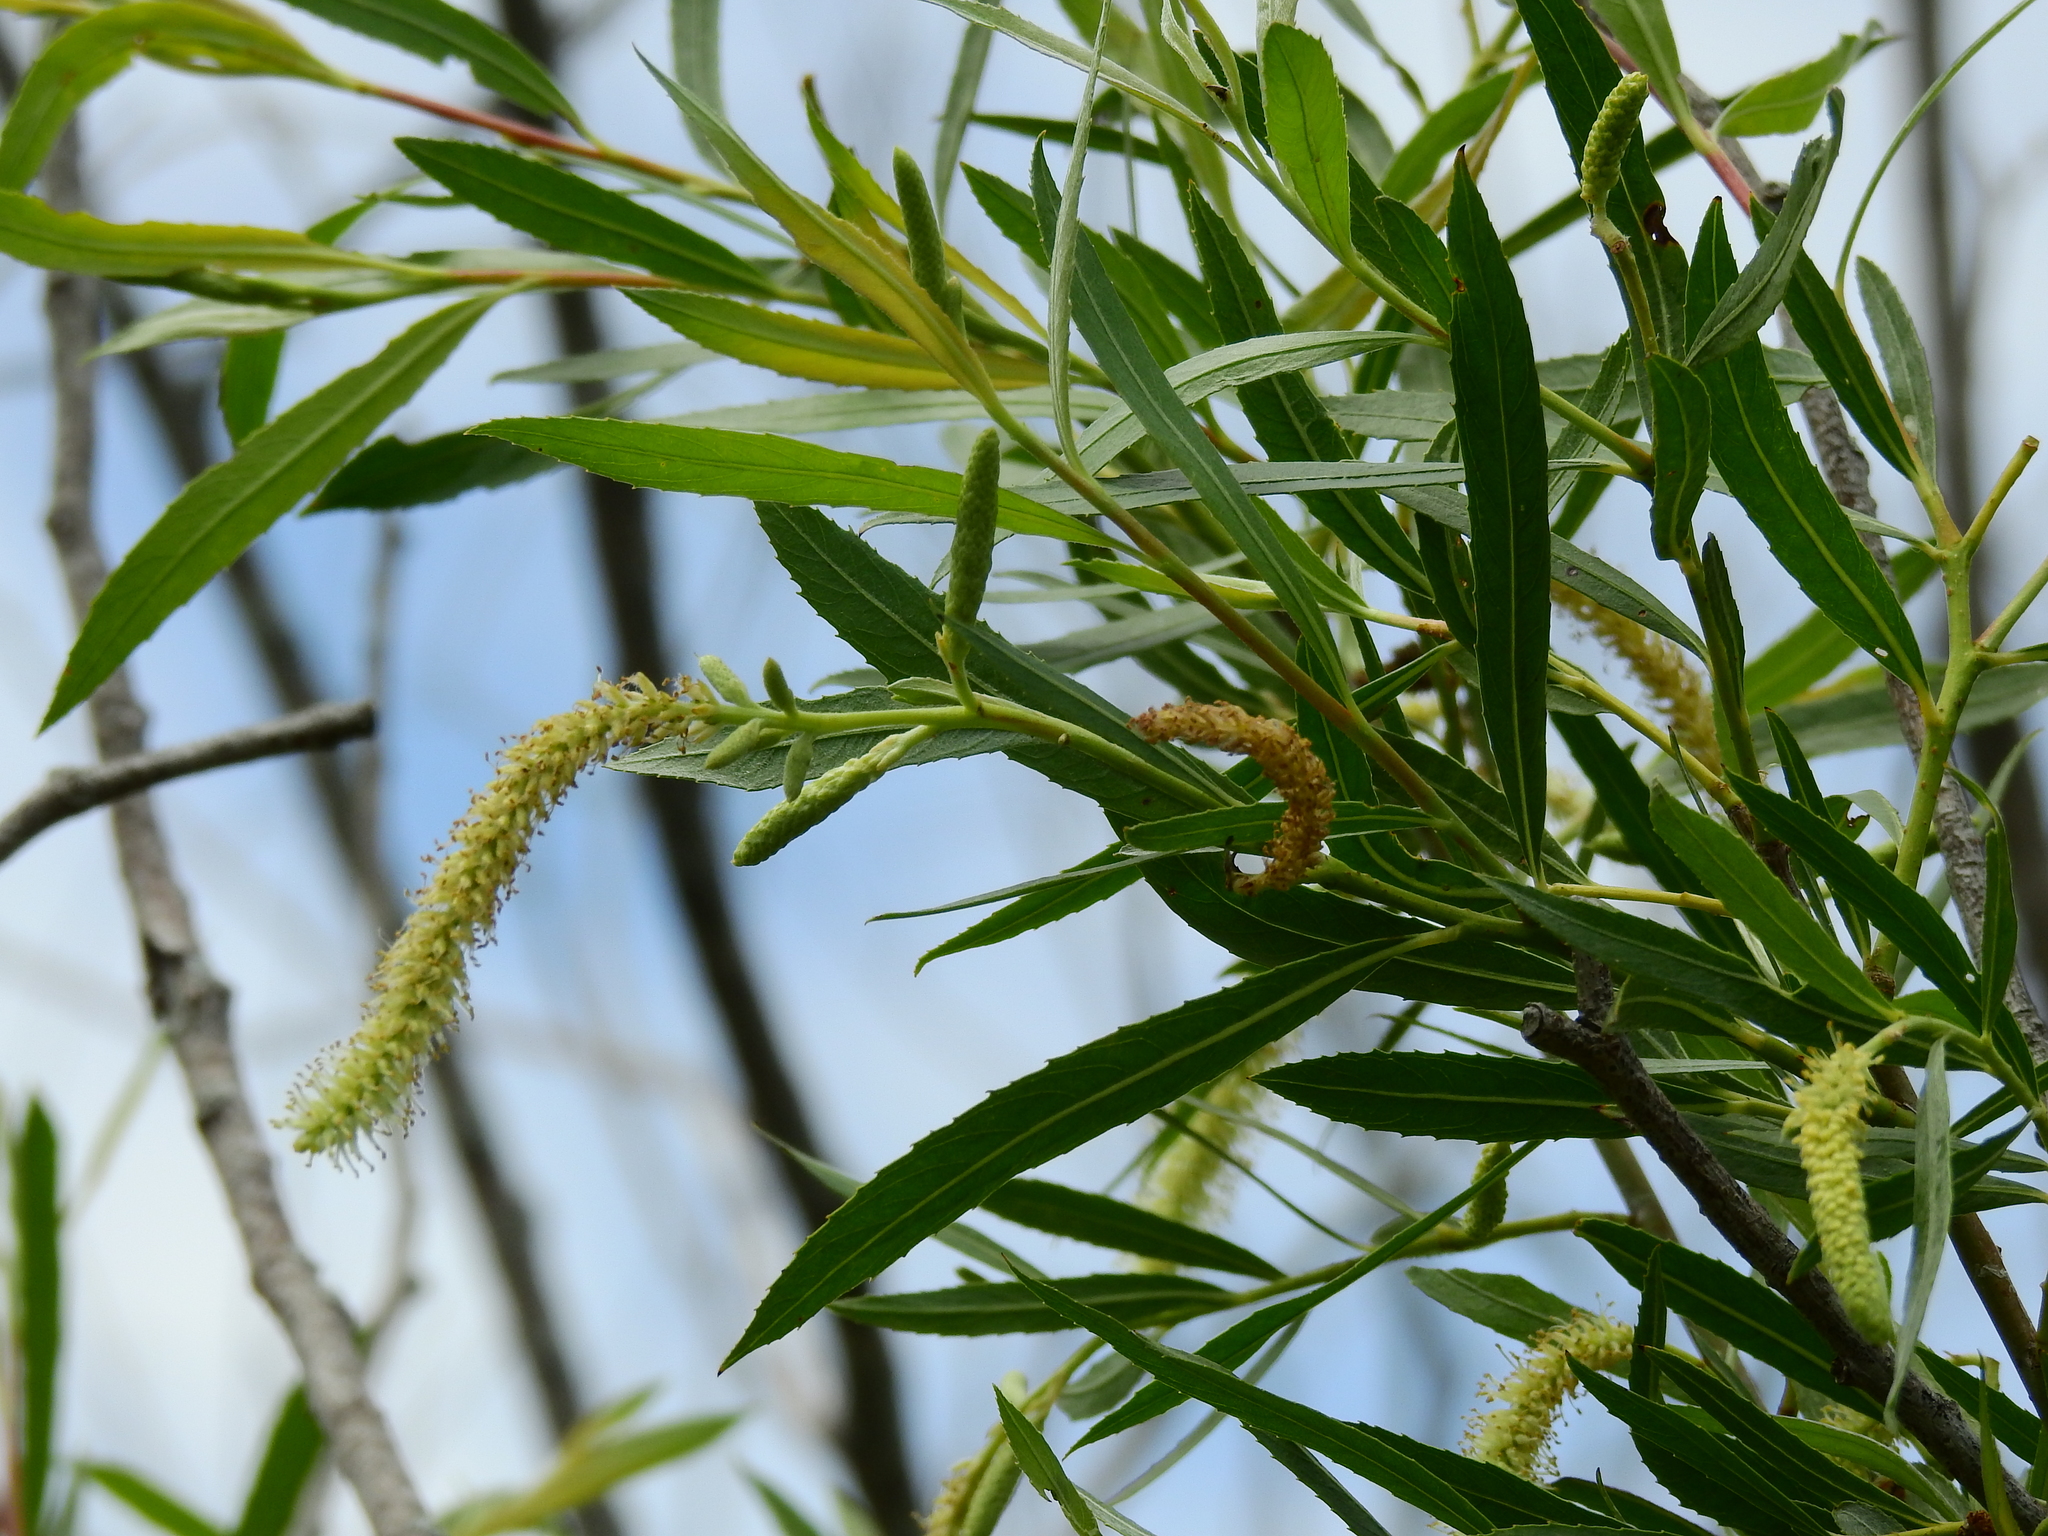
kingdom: Plantae
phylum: Tracheophyta
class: Magnoliopsida
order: Malpighiales
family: Salicaceae
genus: Salix
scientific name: Salix nigra
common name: Black willow
